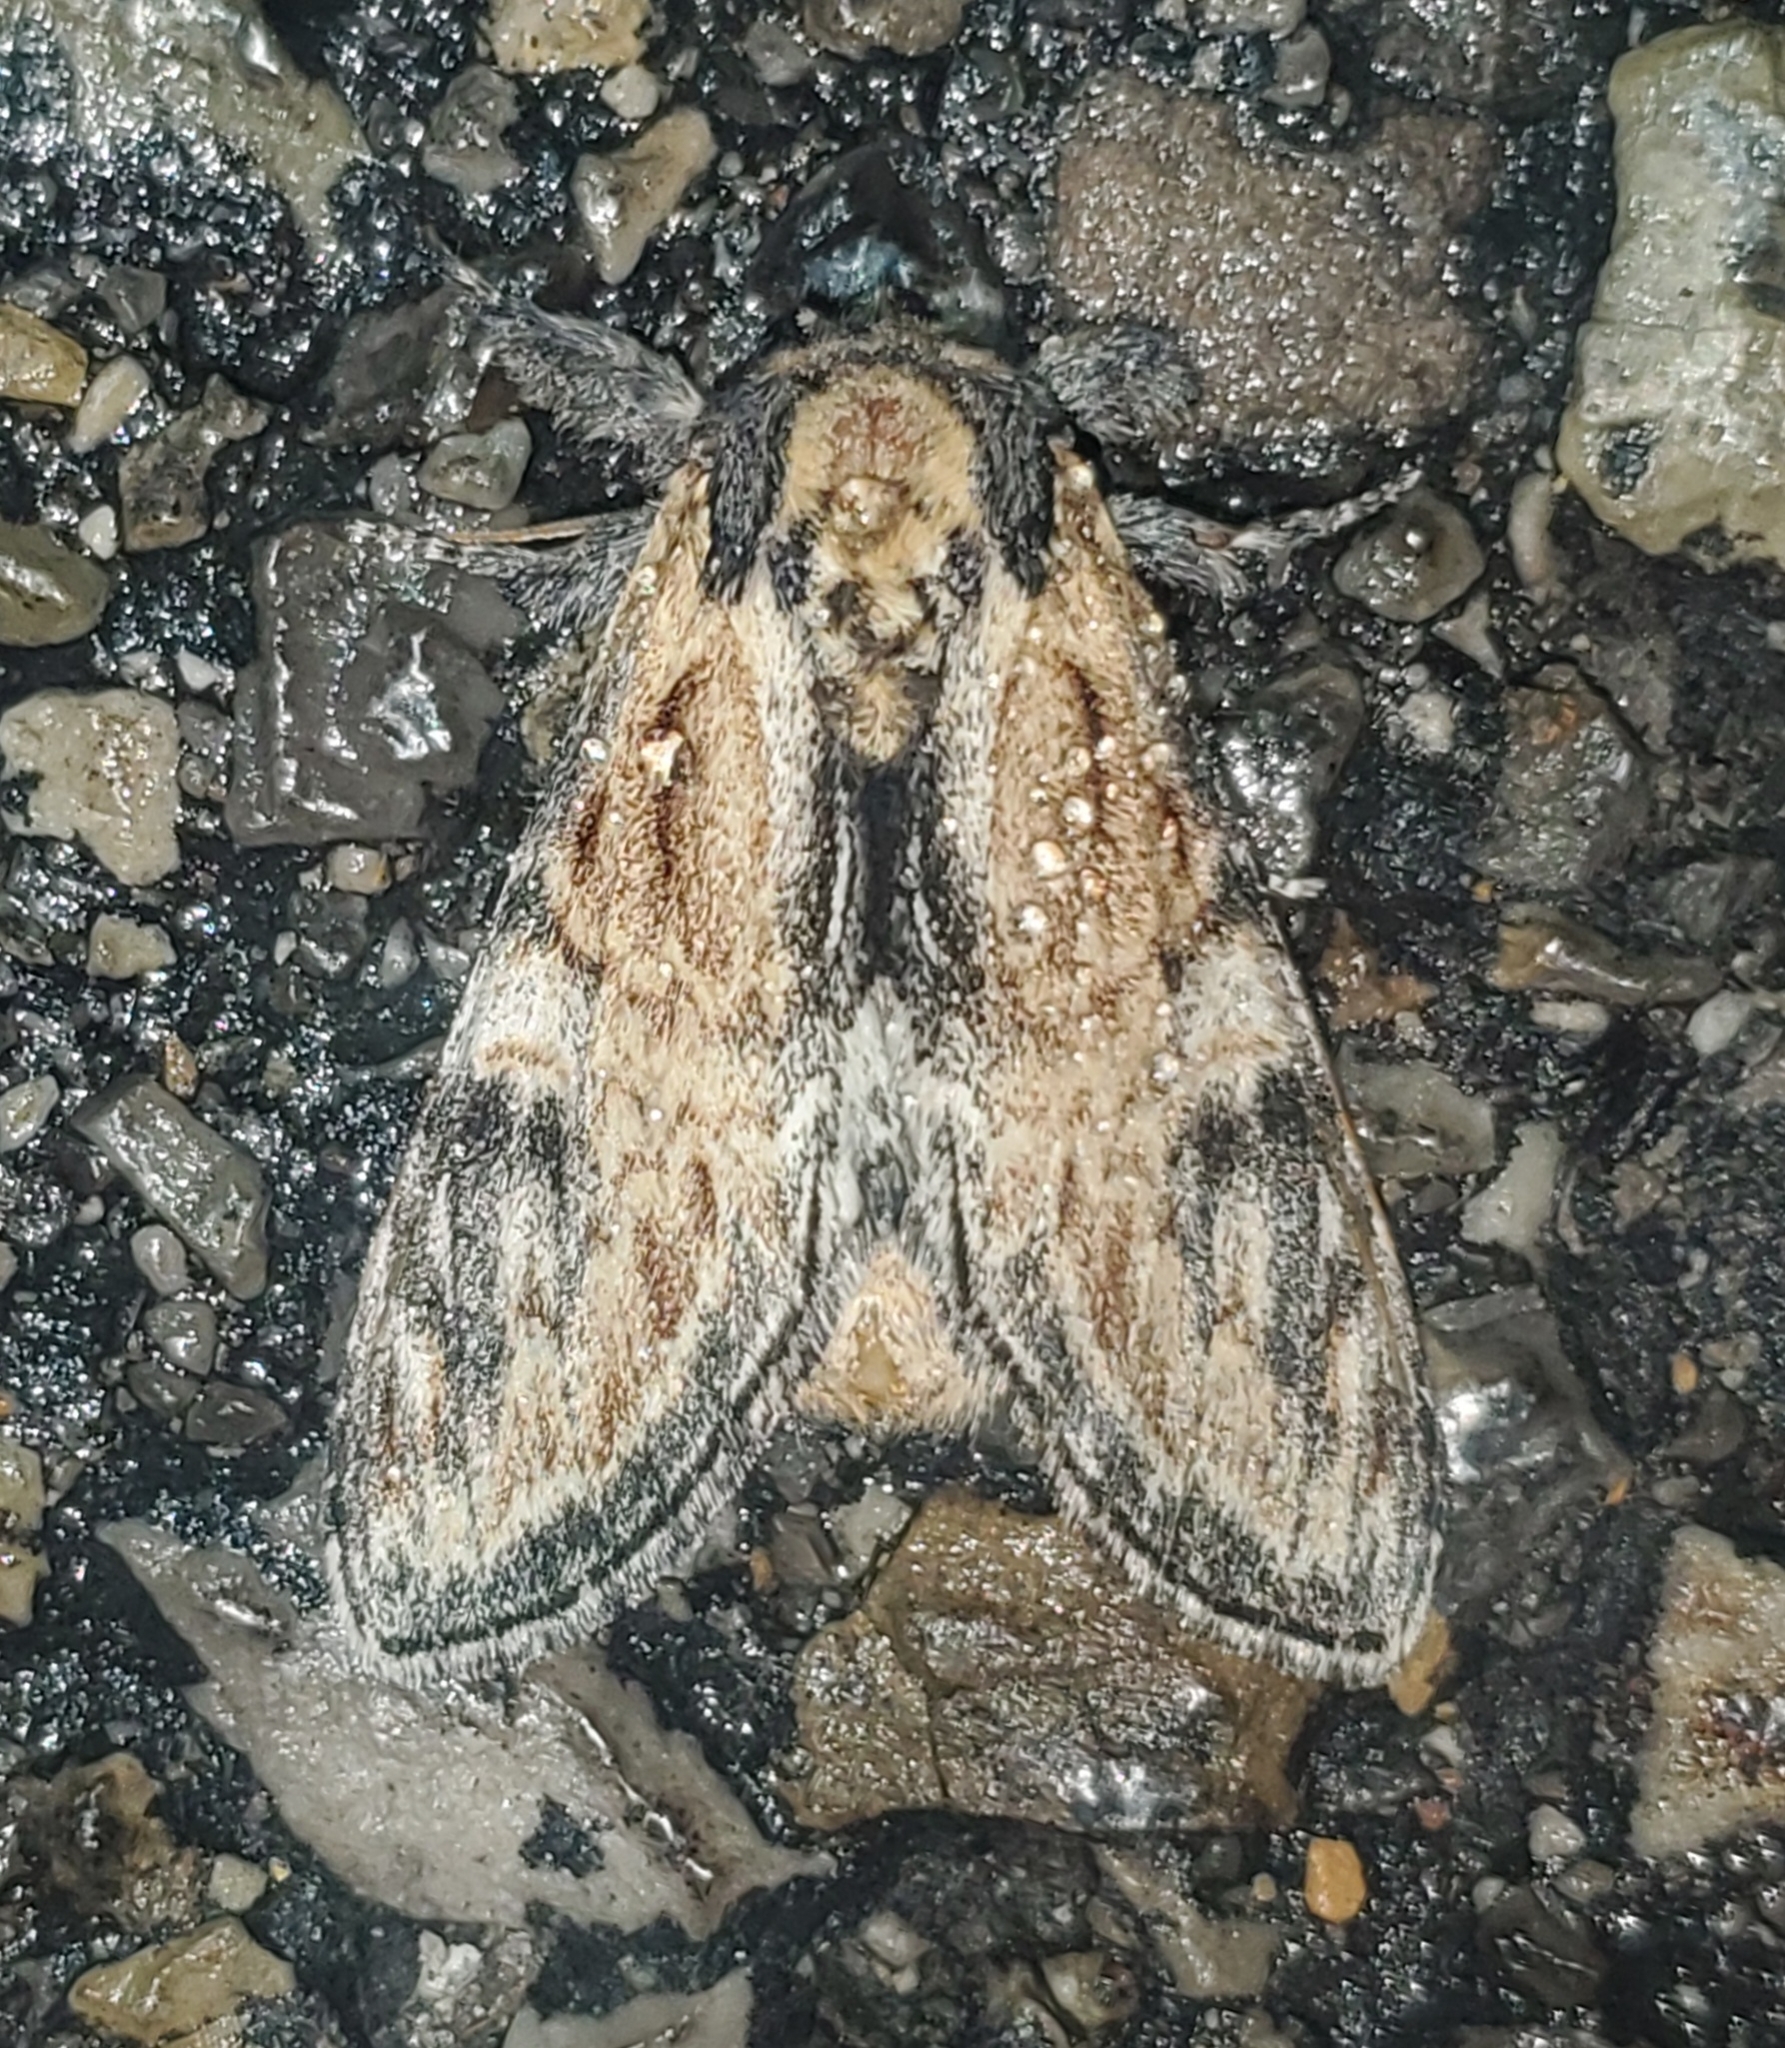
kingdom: Animalia
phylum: Arthropoda
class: Insecta
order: Lepidoptera
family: Notodontidae
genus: Notodonta
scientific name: Notodonta
